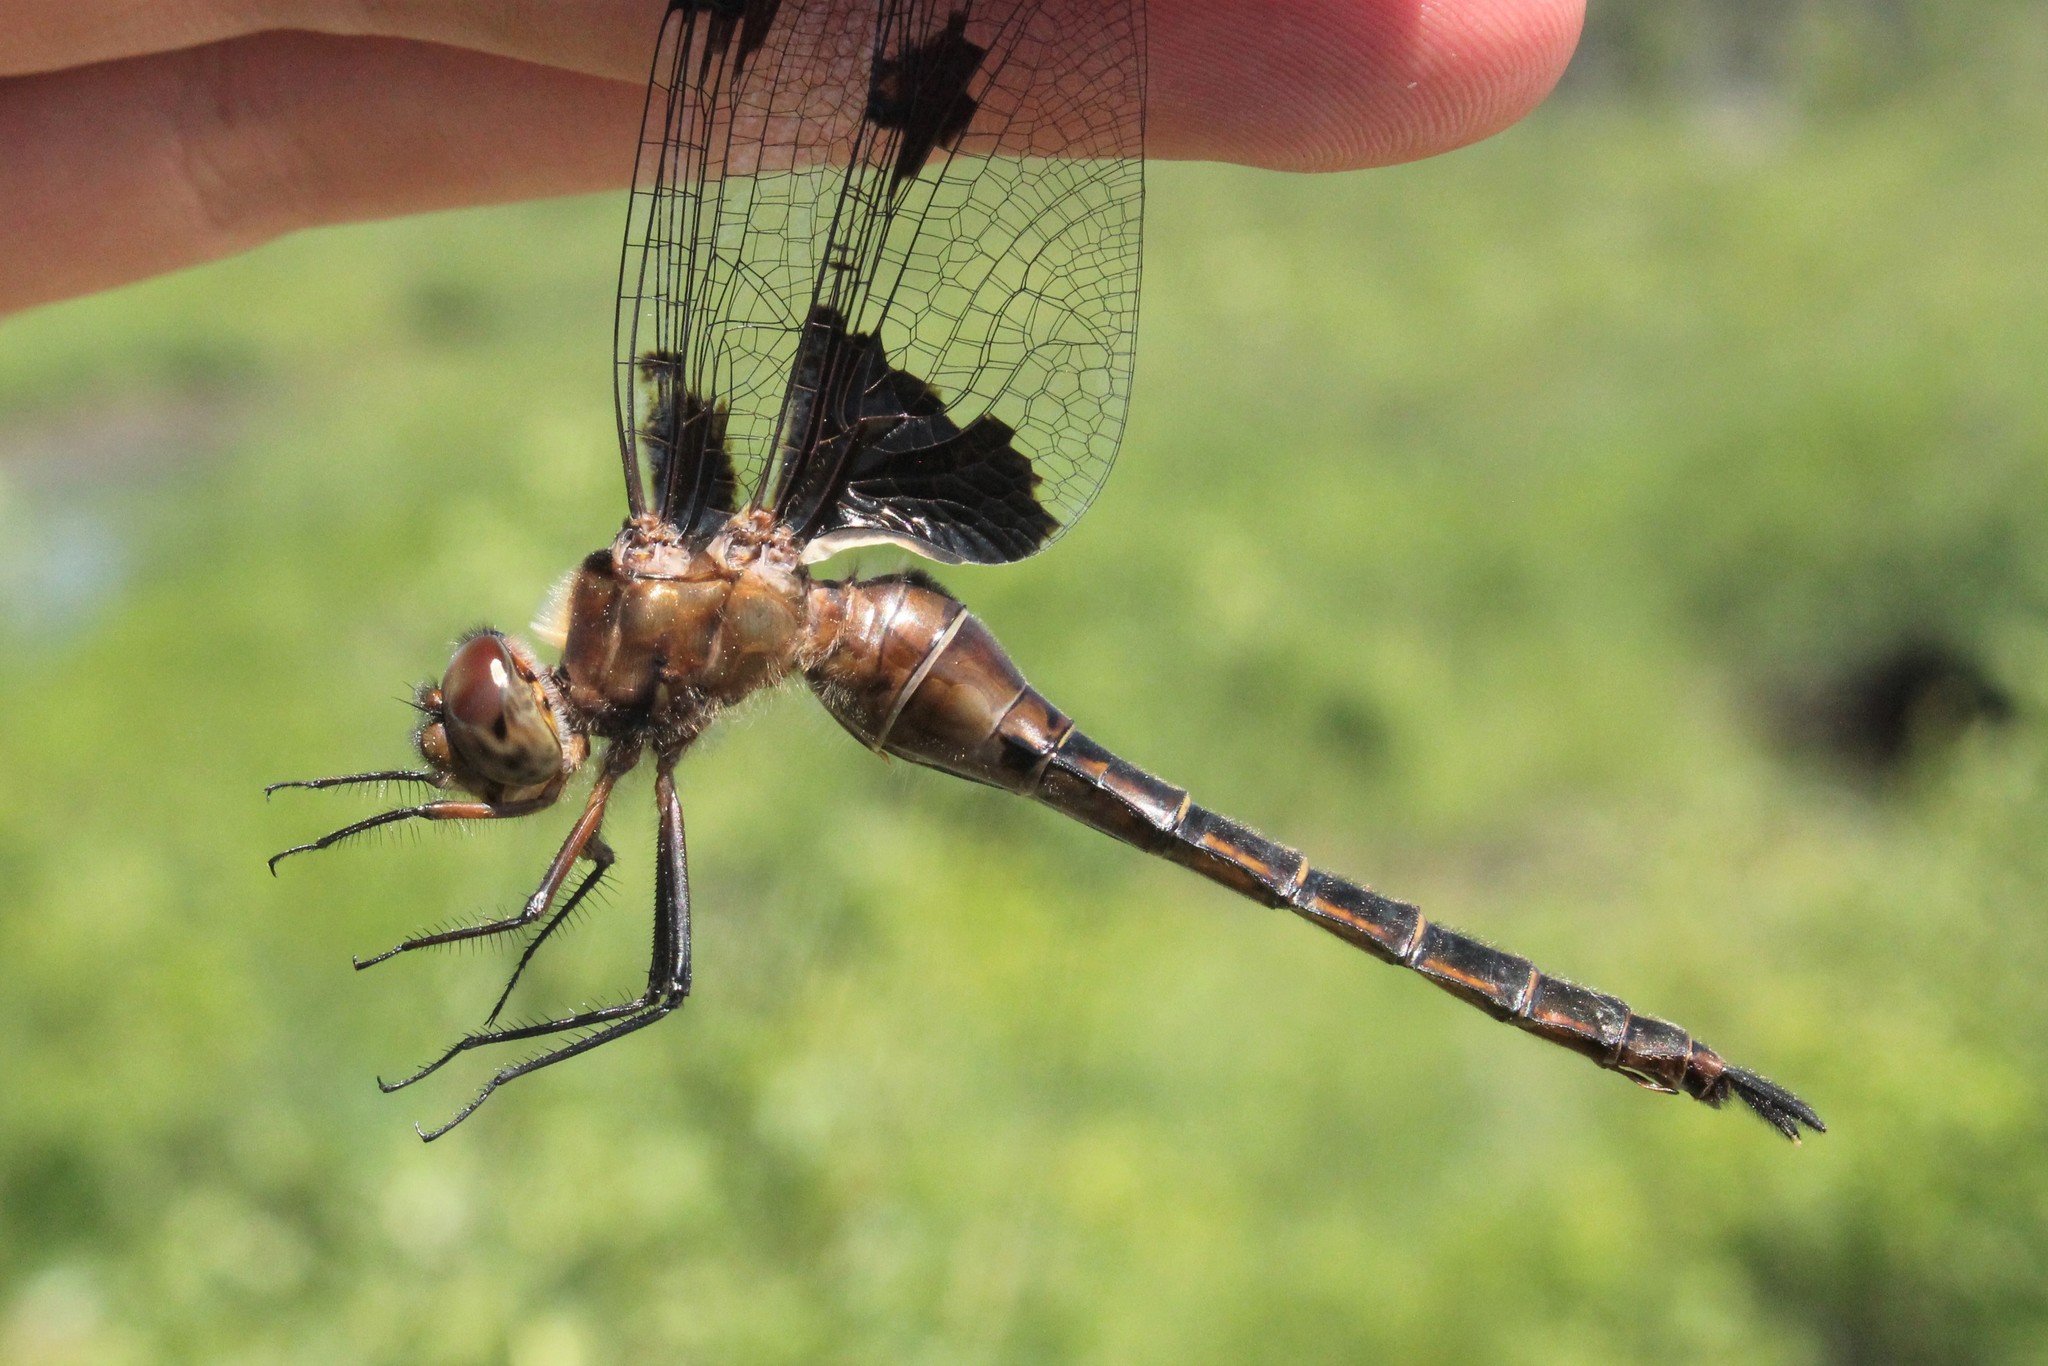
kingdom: Animalia
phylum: Arthropoda
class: Insecta
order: Odonata
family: Corduliidae
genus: Epitheca
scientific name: Epitheca princeps
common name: Prince baskettail
